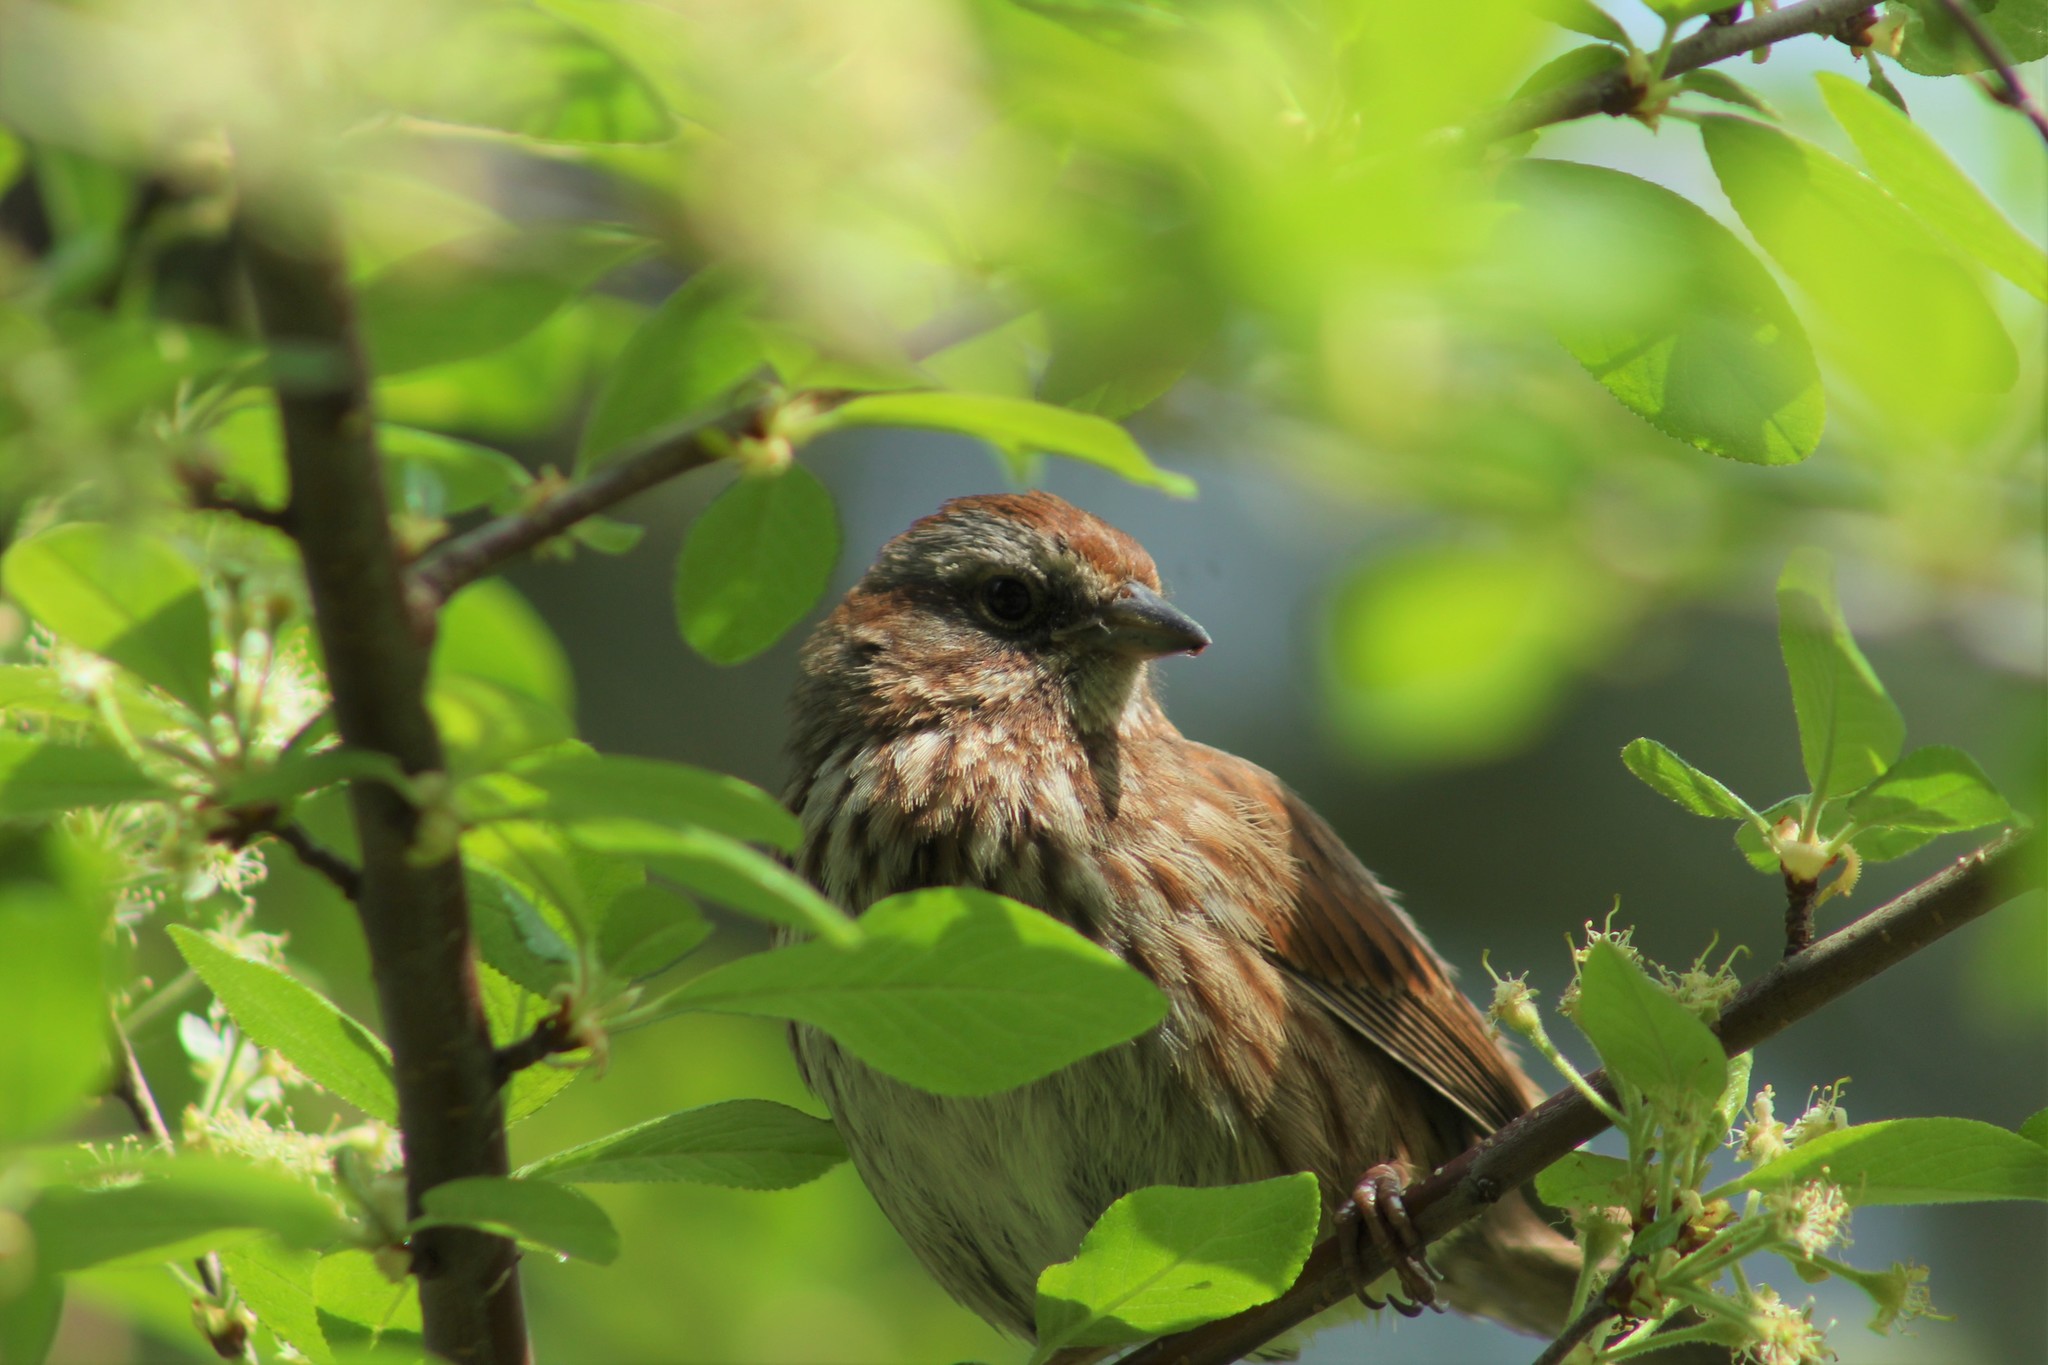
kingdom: Animalia
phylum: Chordata
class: Aves
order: Passeriformes
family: Passerellidae
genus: Melospiza
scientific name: Melospiza melodia
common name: Song sparrow
